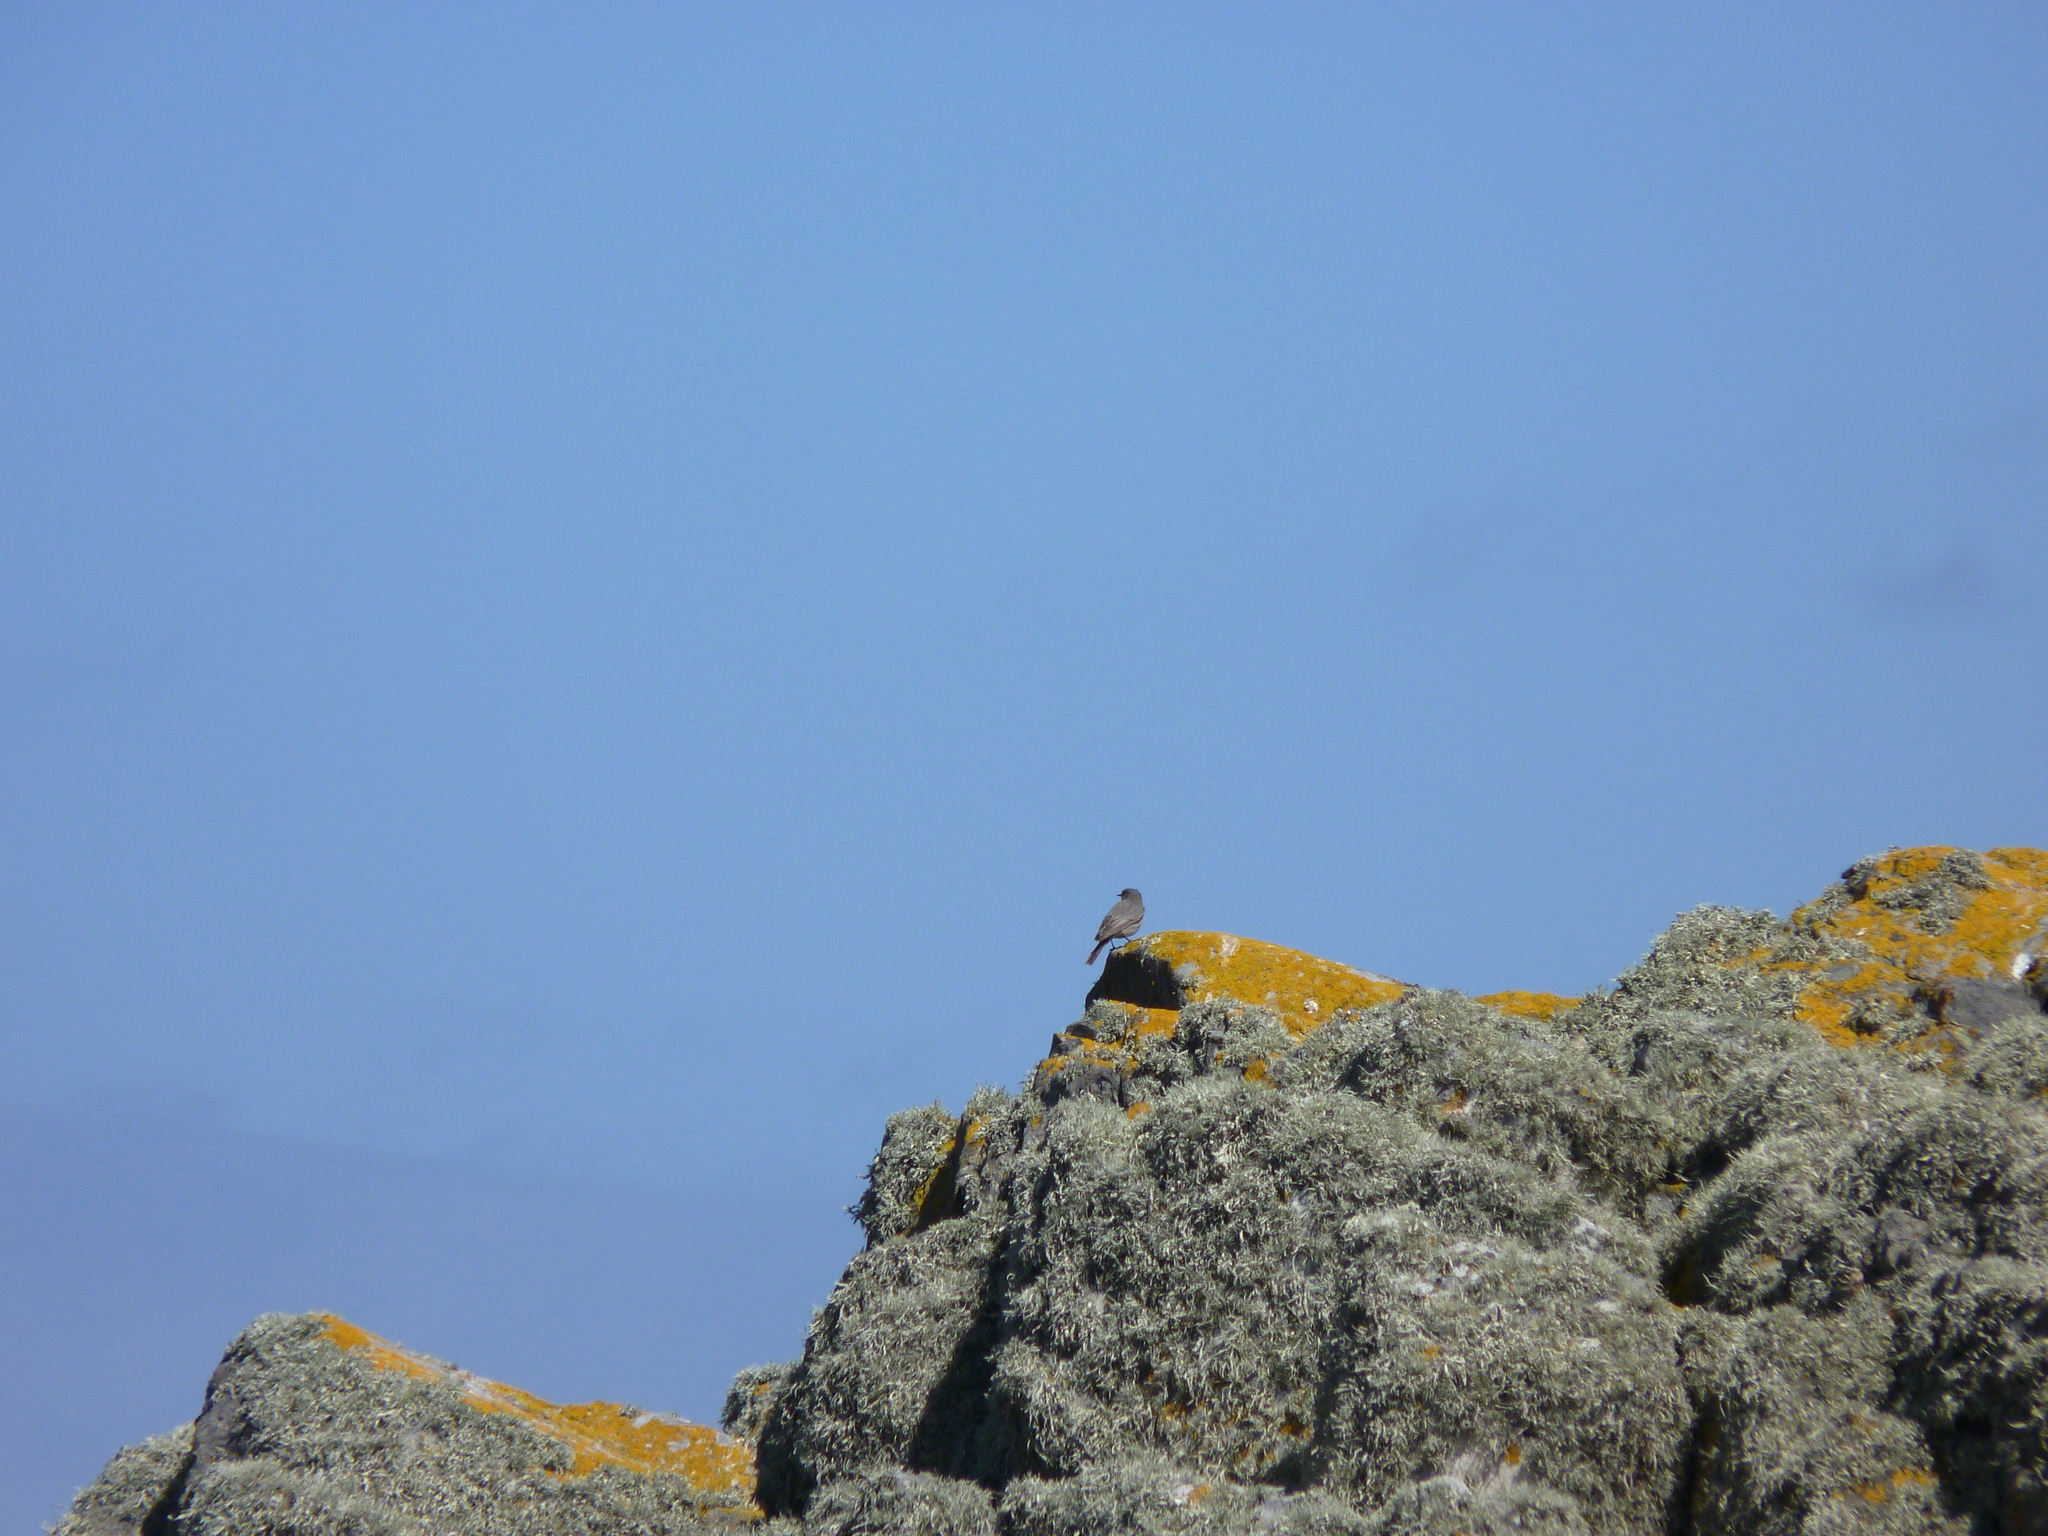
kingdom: Animalia
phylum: Chordata
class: Aves
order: Passeriformes
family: Muscicapidae
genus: Phoenicurus
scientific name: Phoenicurus ochruros
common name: Black redstart
